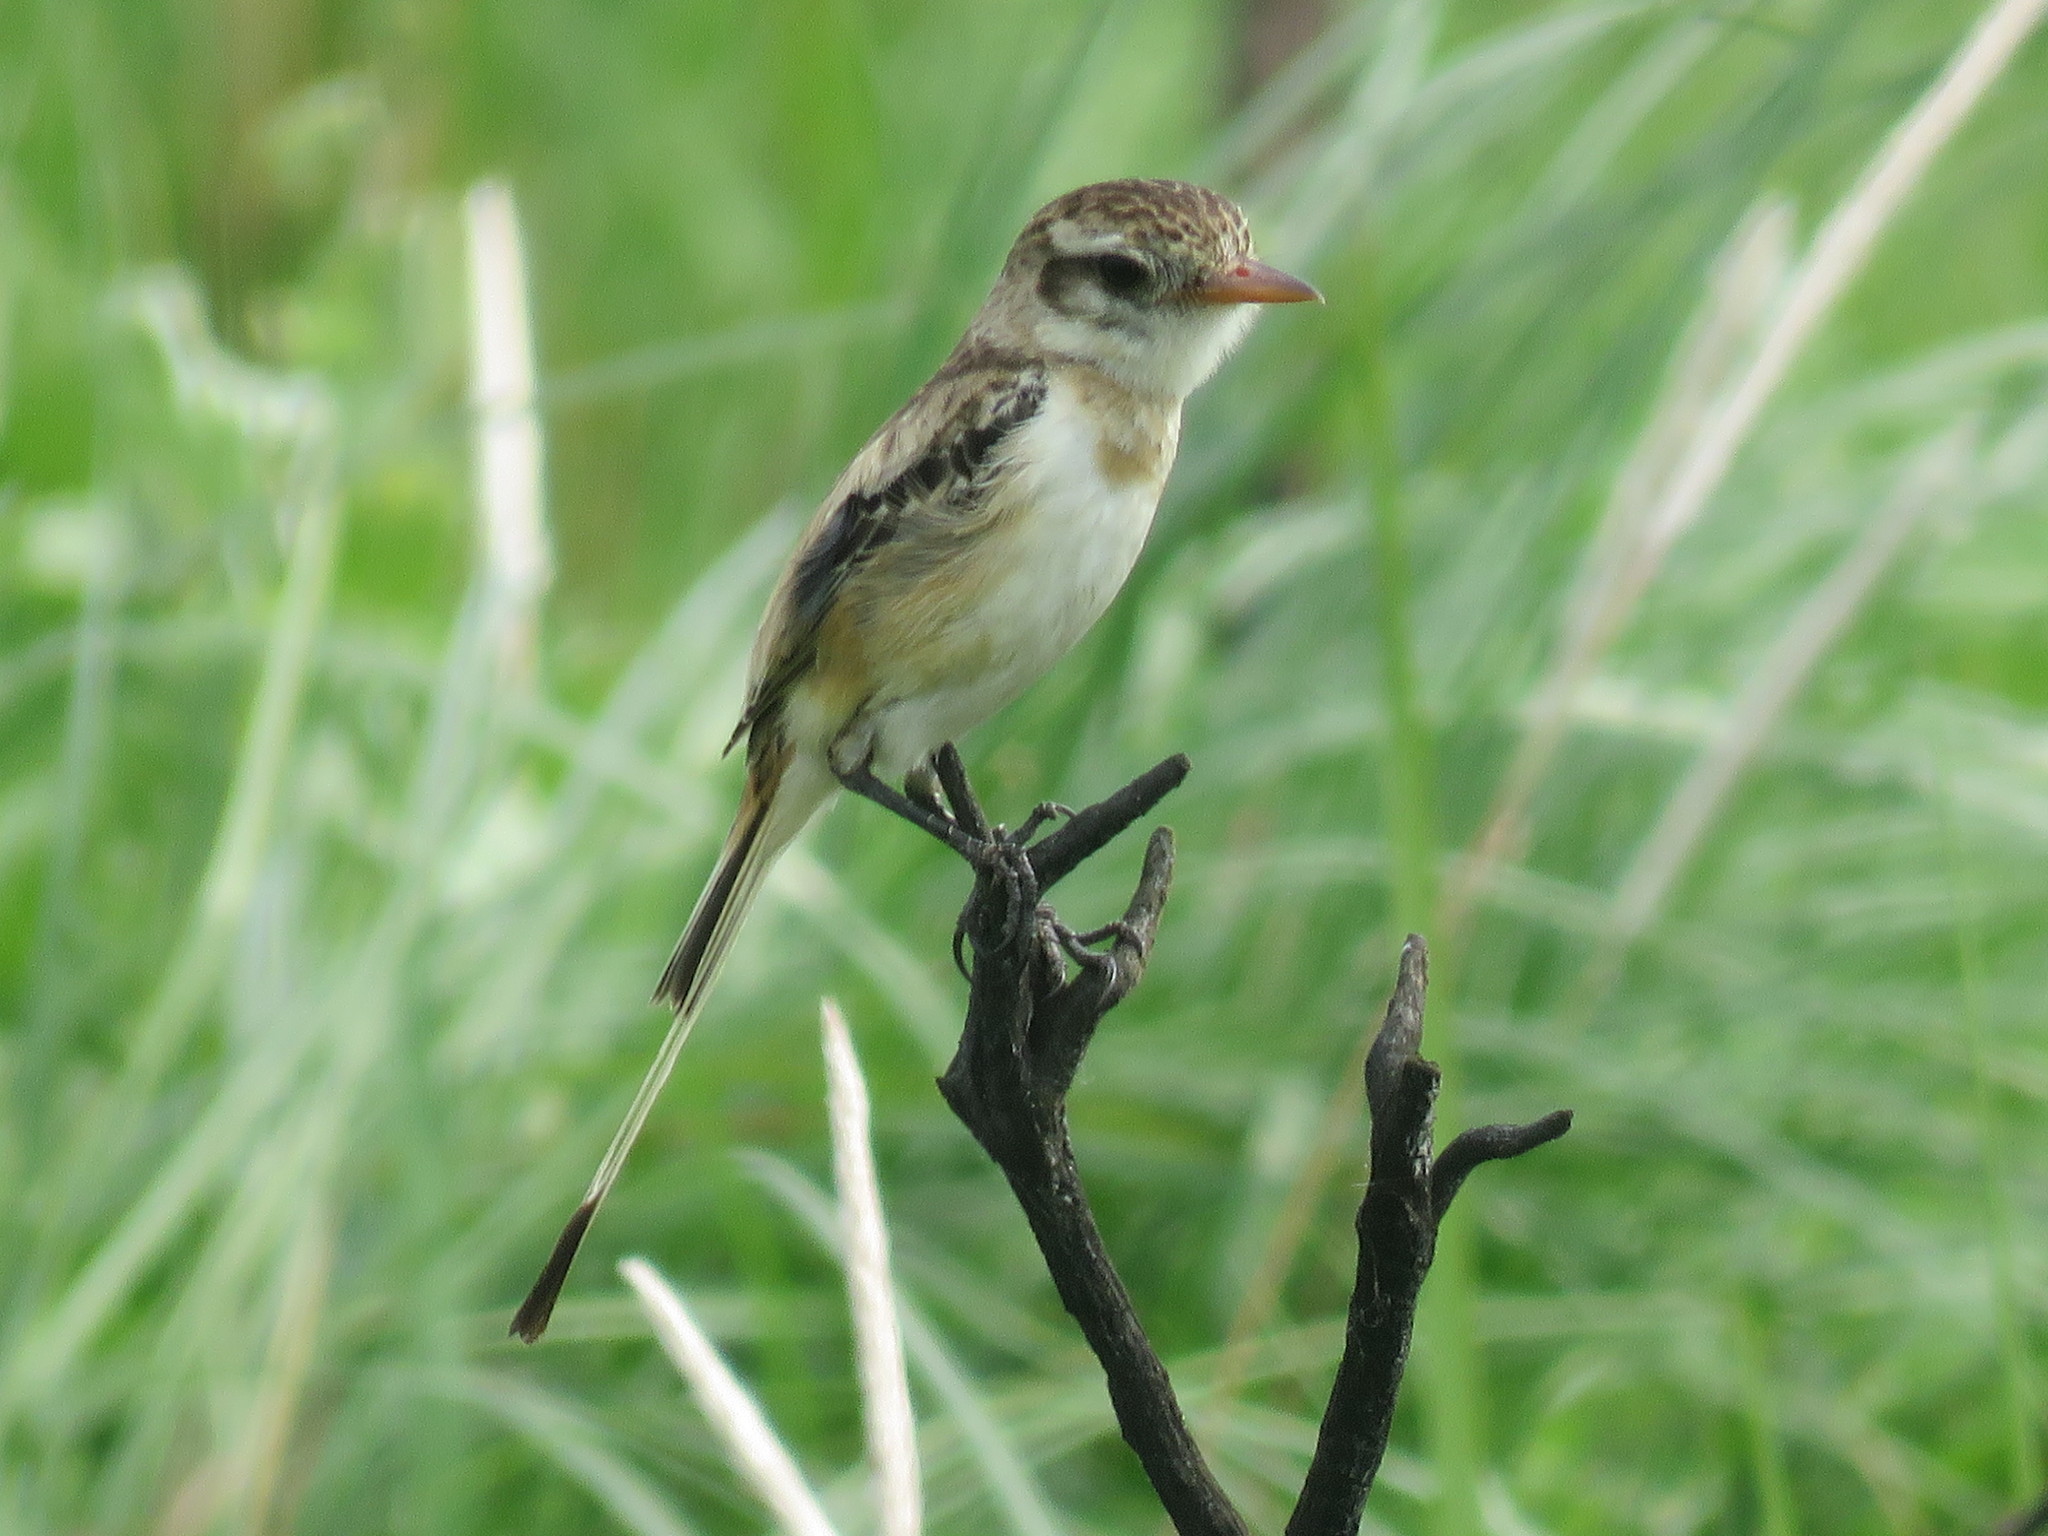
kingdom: Animalia
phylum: Chordata
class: Aves
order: Passeriformes
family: Tyrannidae
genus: Alectrurus
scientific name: Alectrurus risora
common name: Strange-tailed tyrant
